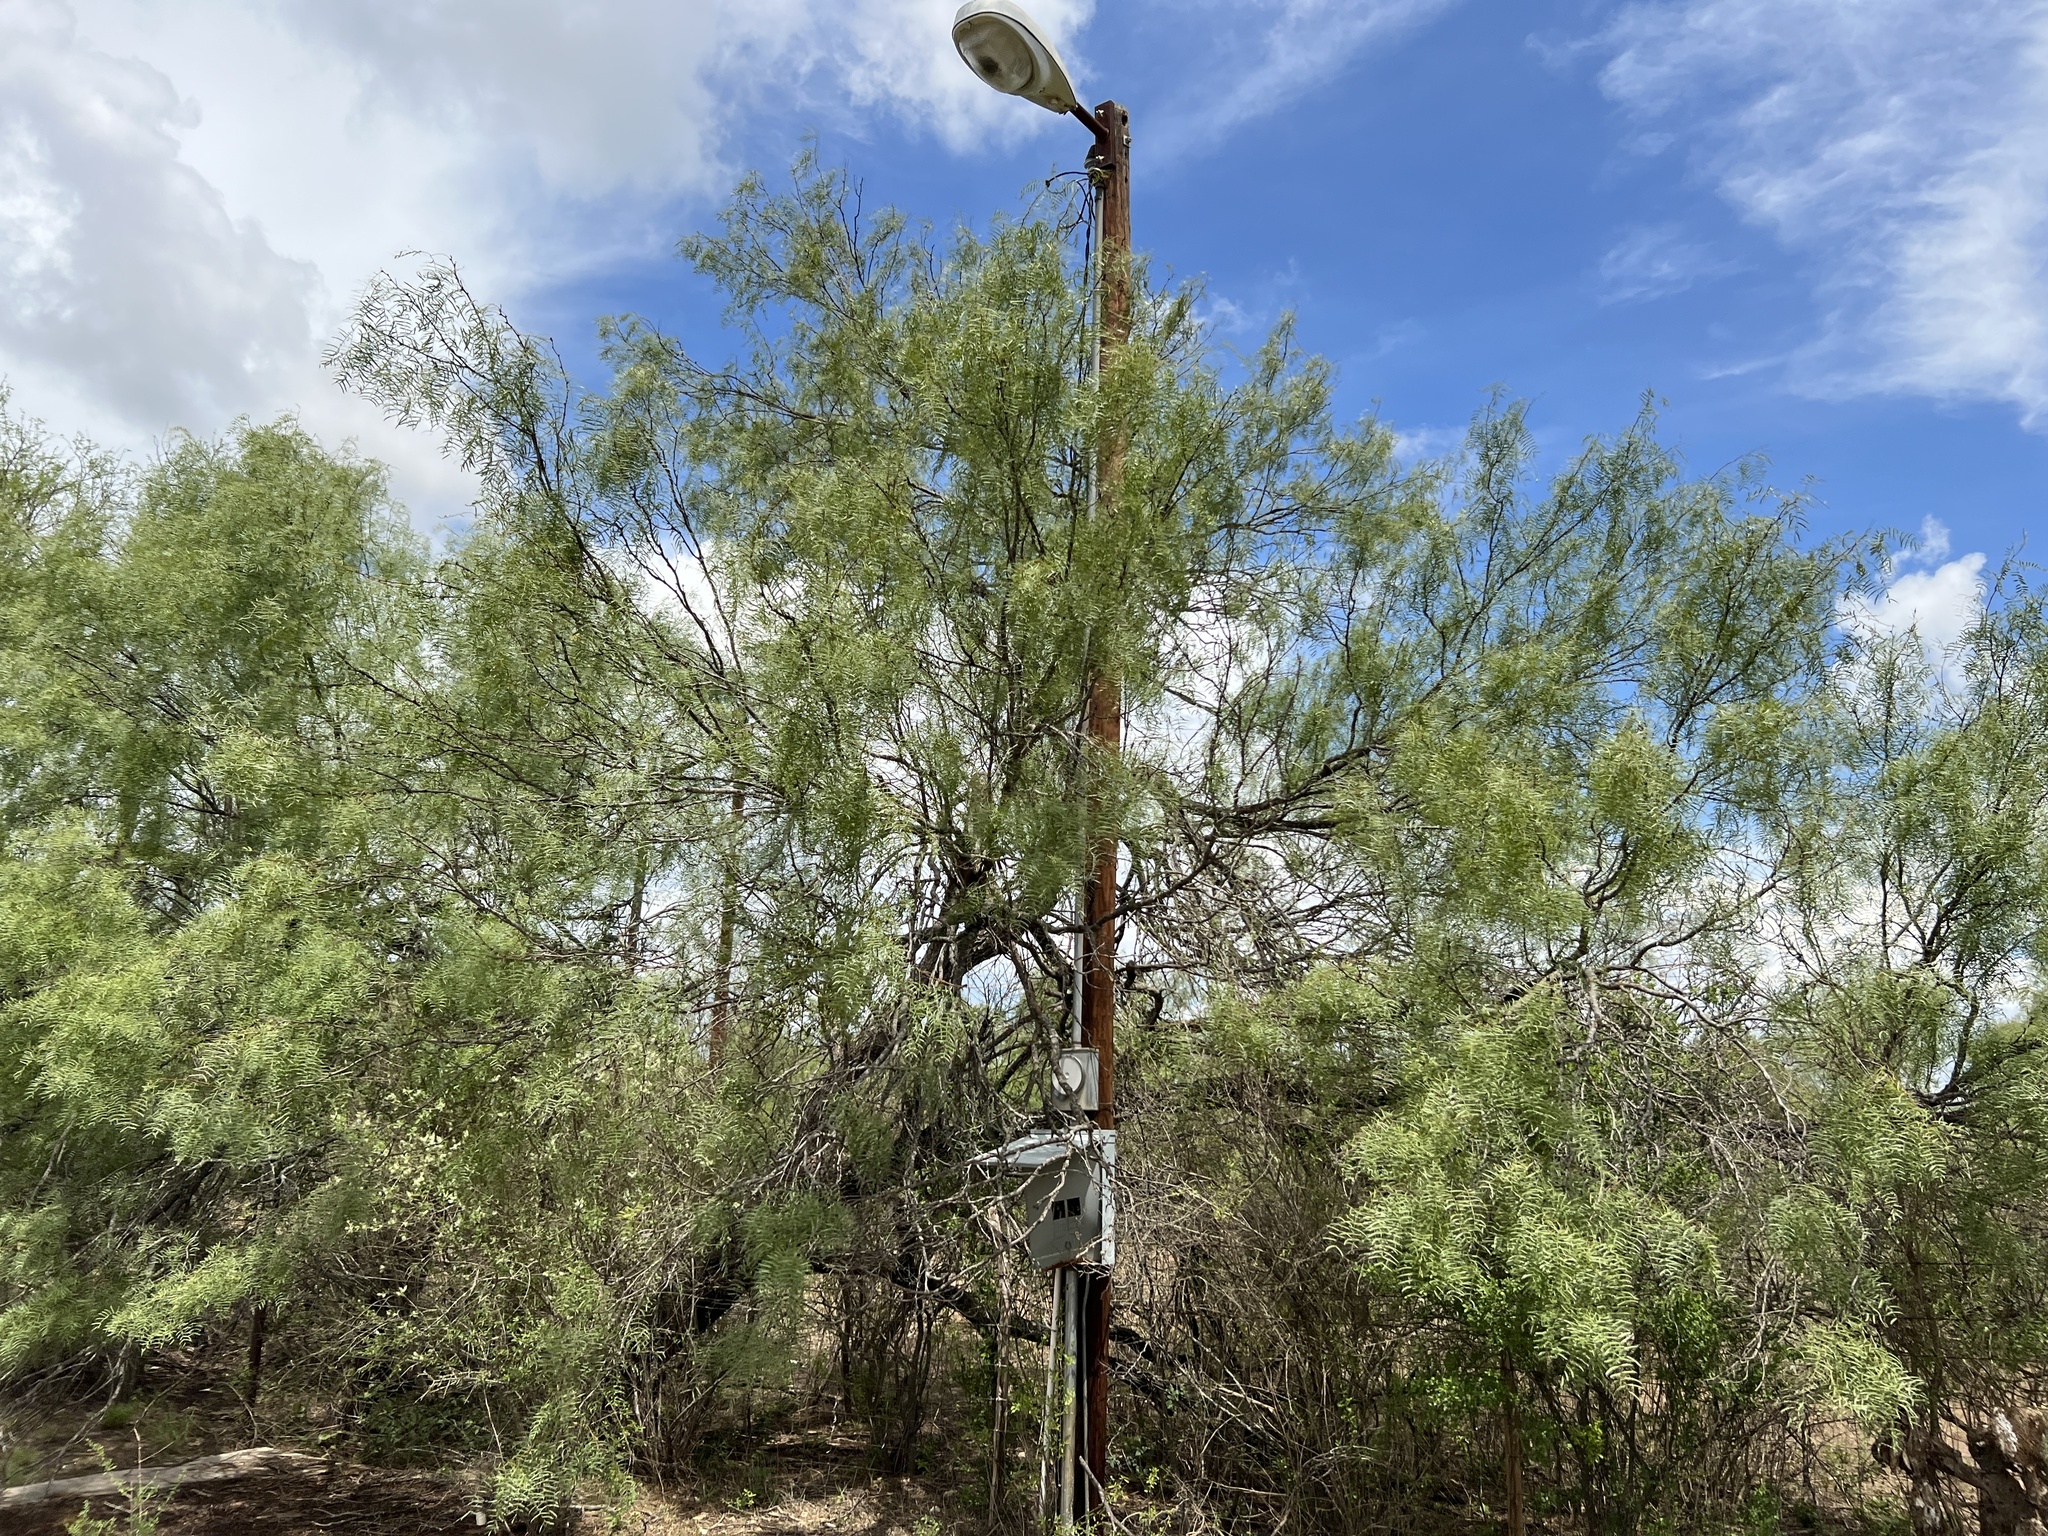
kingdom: Plantae
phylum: Tracheophyta
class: Magnoliopsida
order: Fabales
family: Fabaceae
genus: Prosopis
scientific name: Prosopis glandulosa
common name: Honey mesquite
